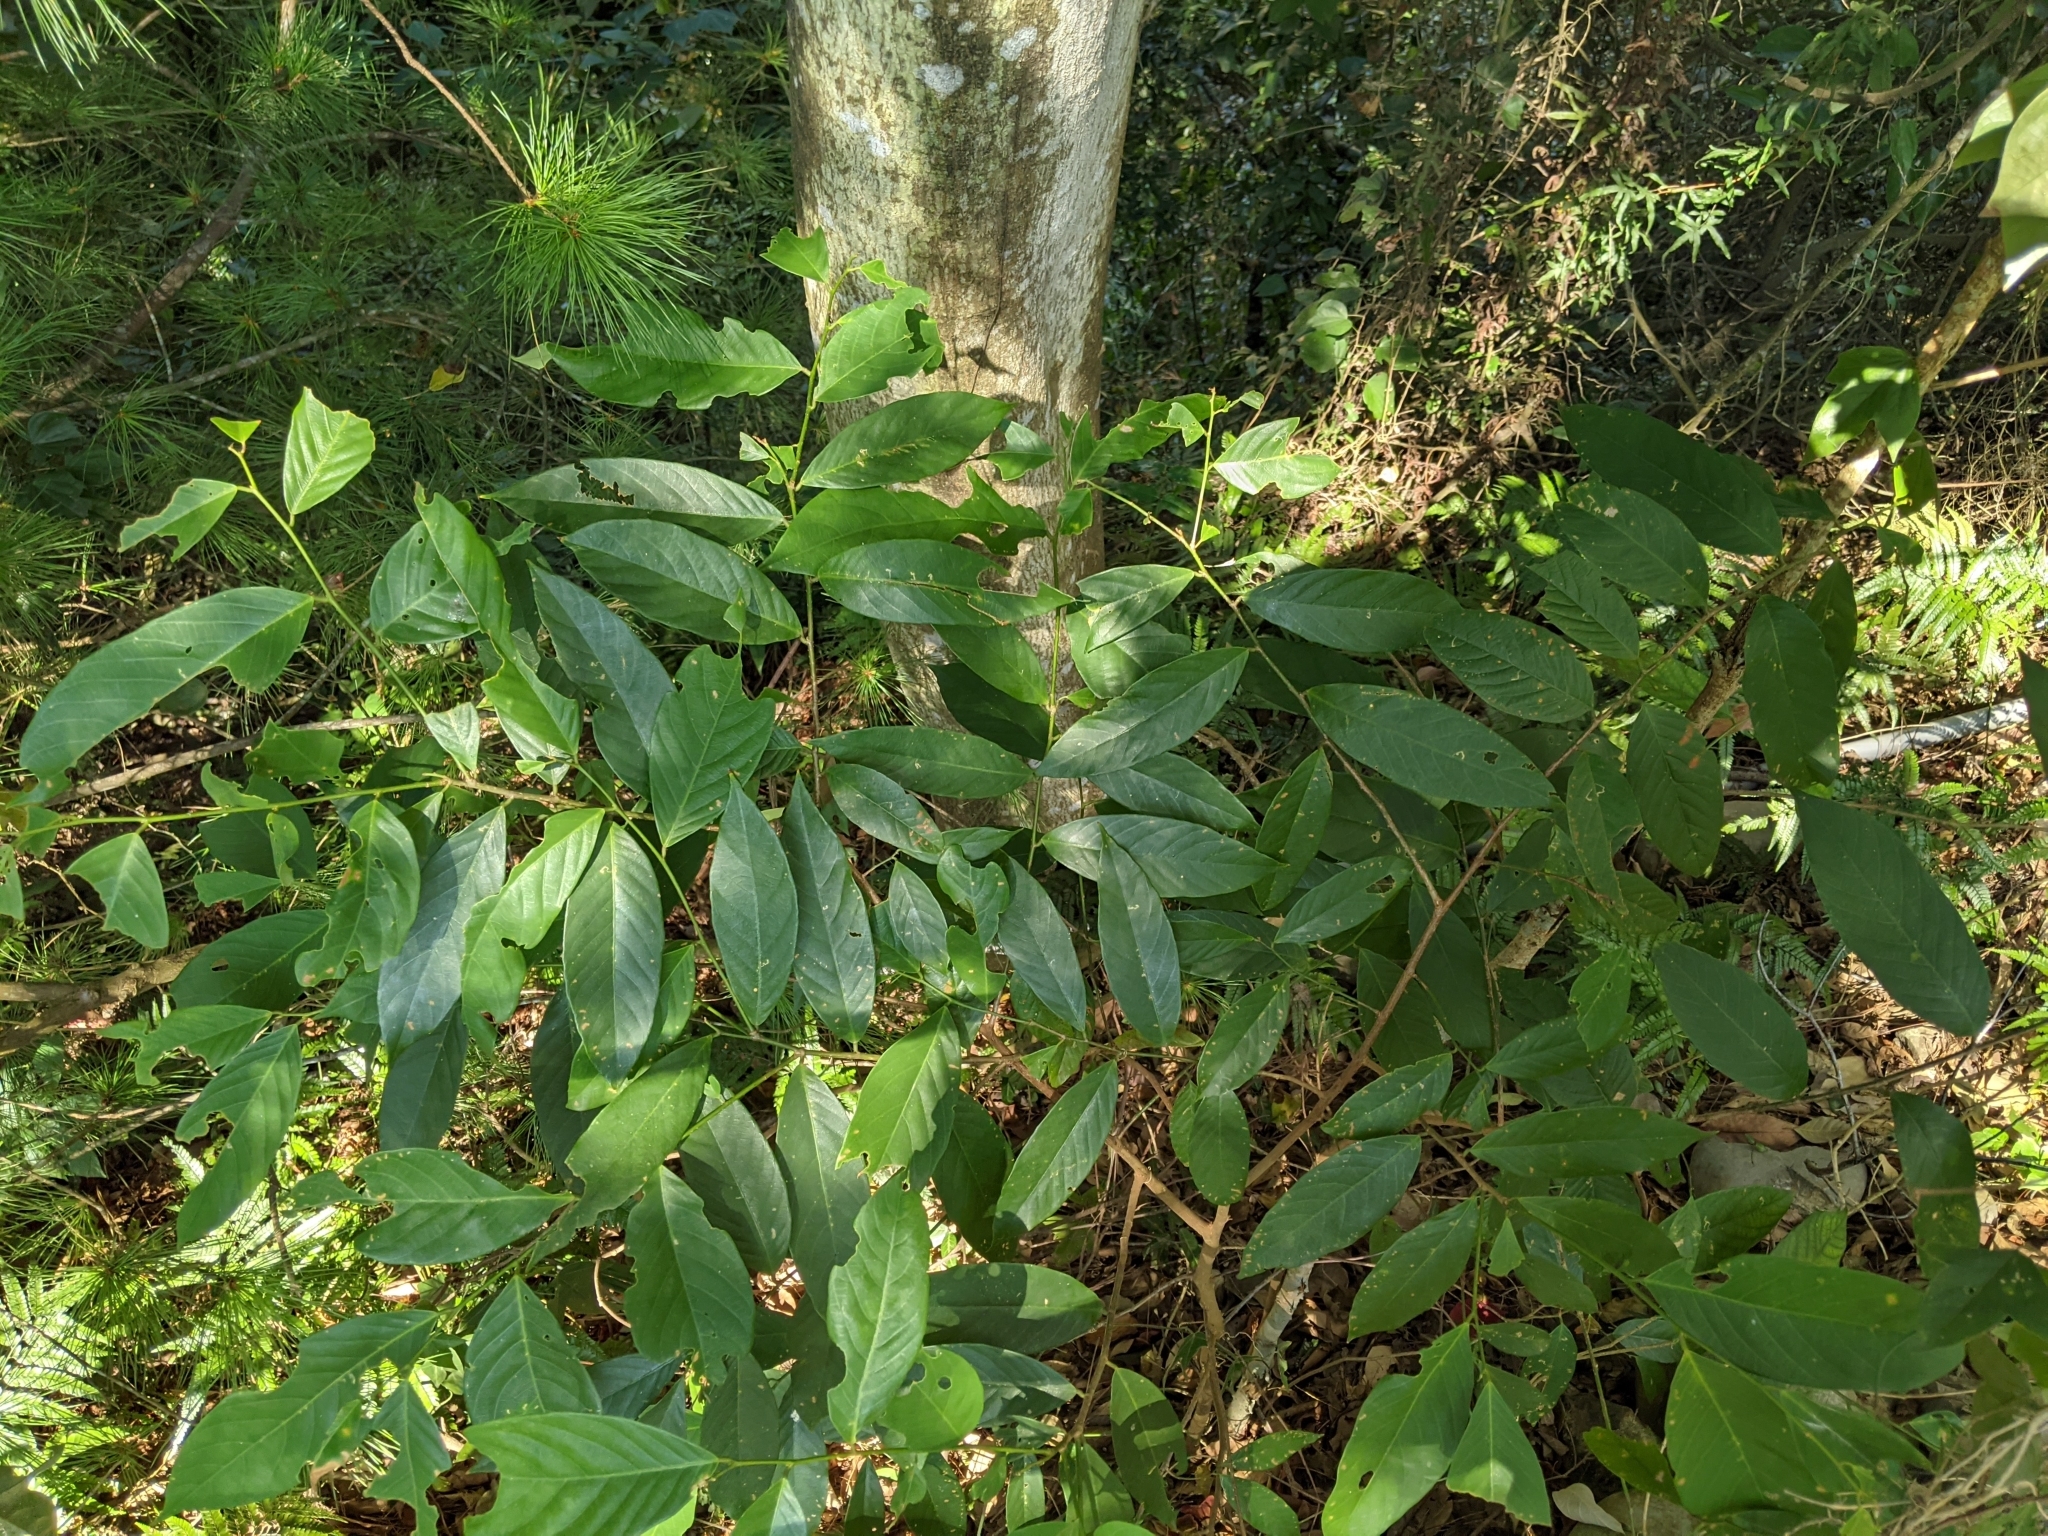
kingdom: Plantae
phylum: Tracheophyta
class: Magnoliopsida
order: Malpighiales
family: Phyllanthaceae
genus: Bridelia
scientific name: Bridelia balansae
